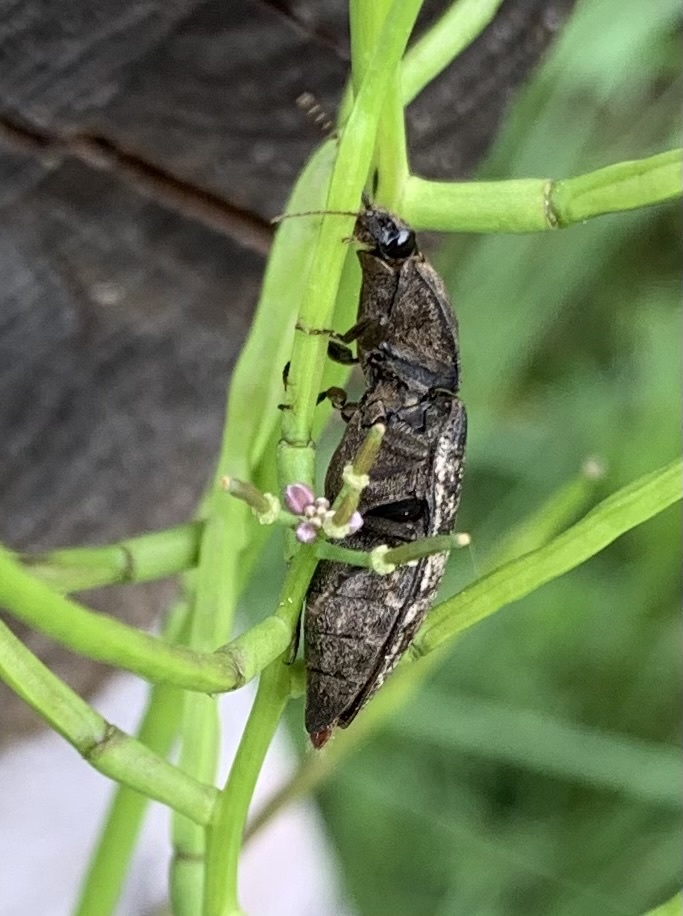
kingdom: Animalia
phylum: Arthropoda
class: Insecta
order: Coleoptera
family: Elateridae
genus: Agrypnus
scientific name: Agrypnus murinus
